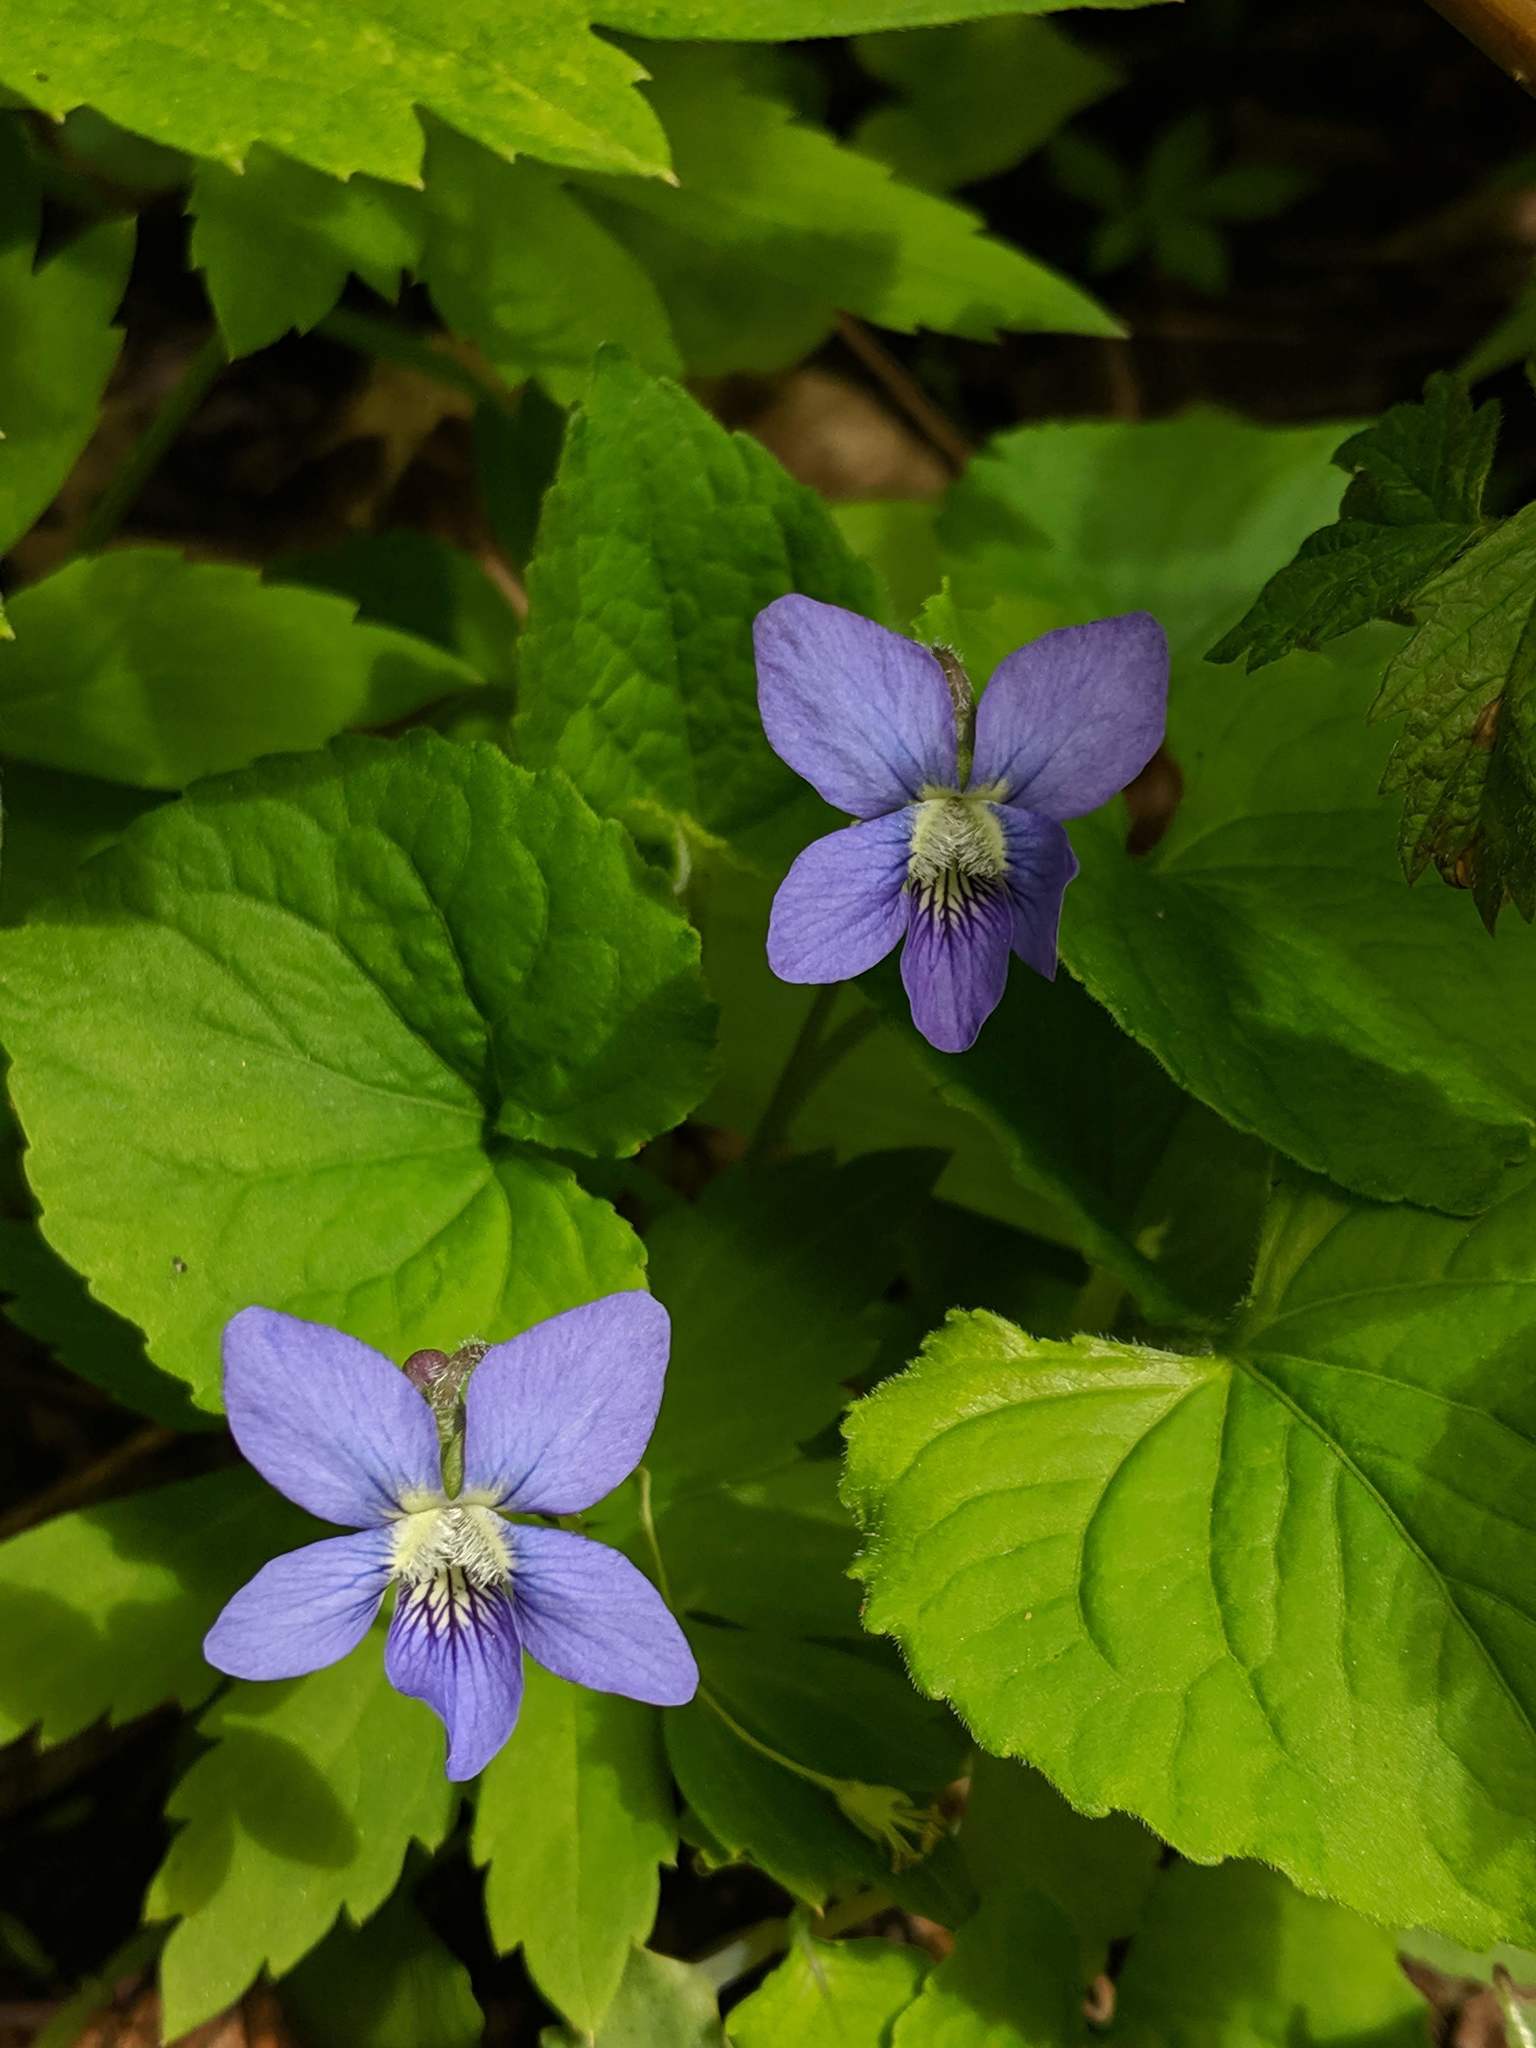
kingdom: Plantae
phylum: Tracheophyta
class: Magnoliopsida
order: Malpighiales
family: Violaceae
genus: Viola
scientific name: Viola sororia
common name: Dooryard violet
